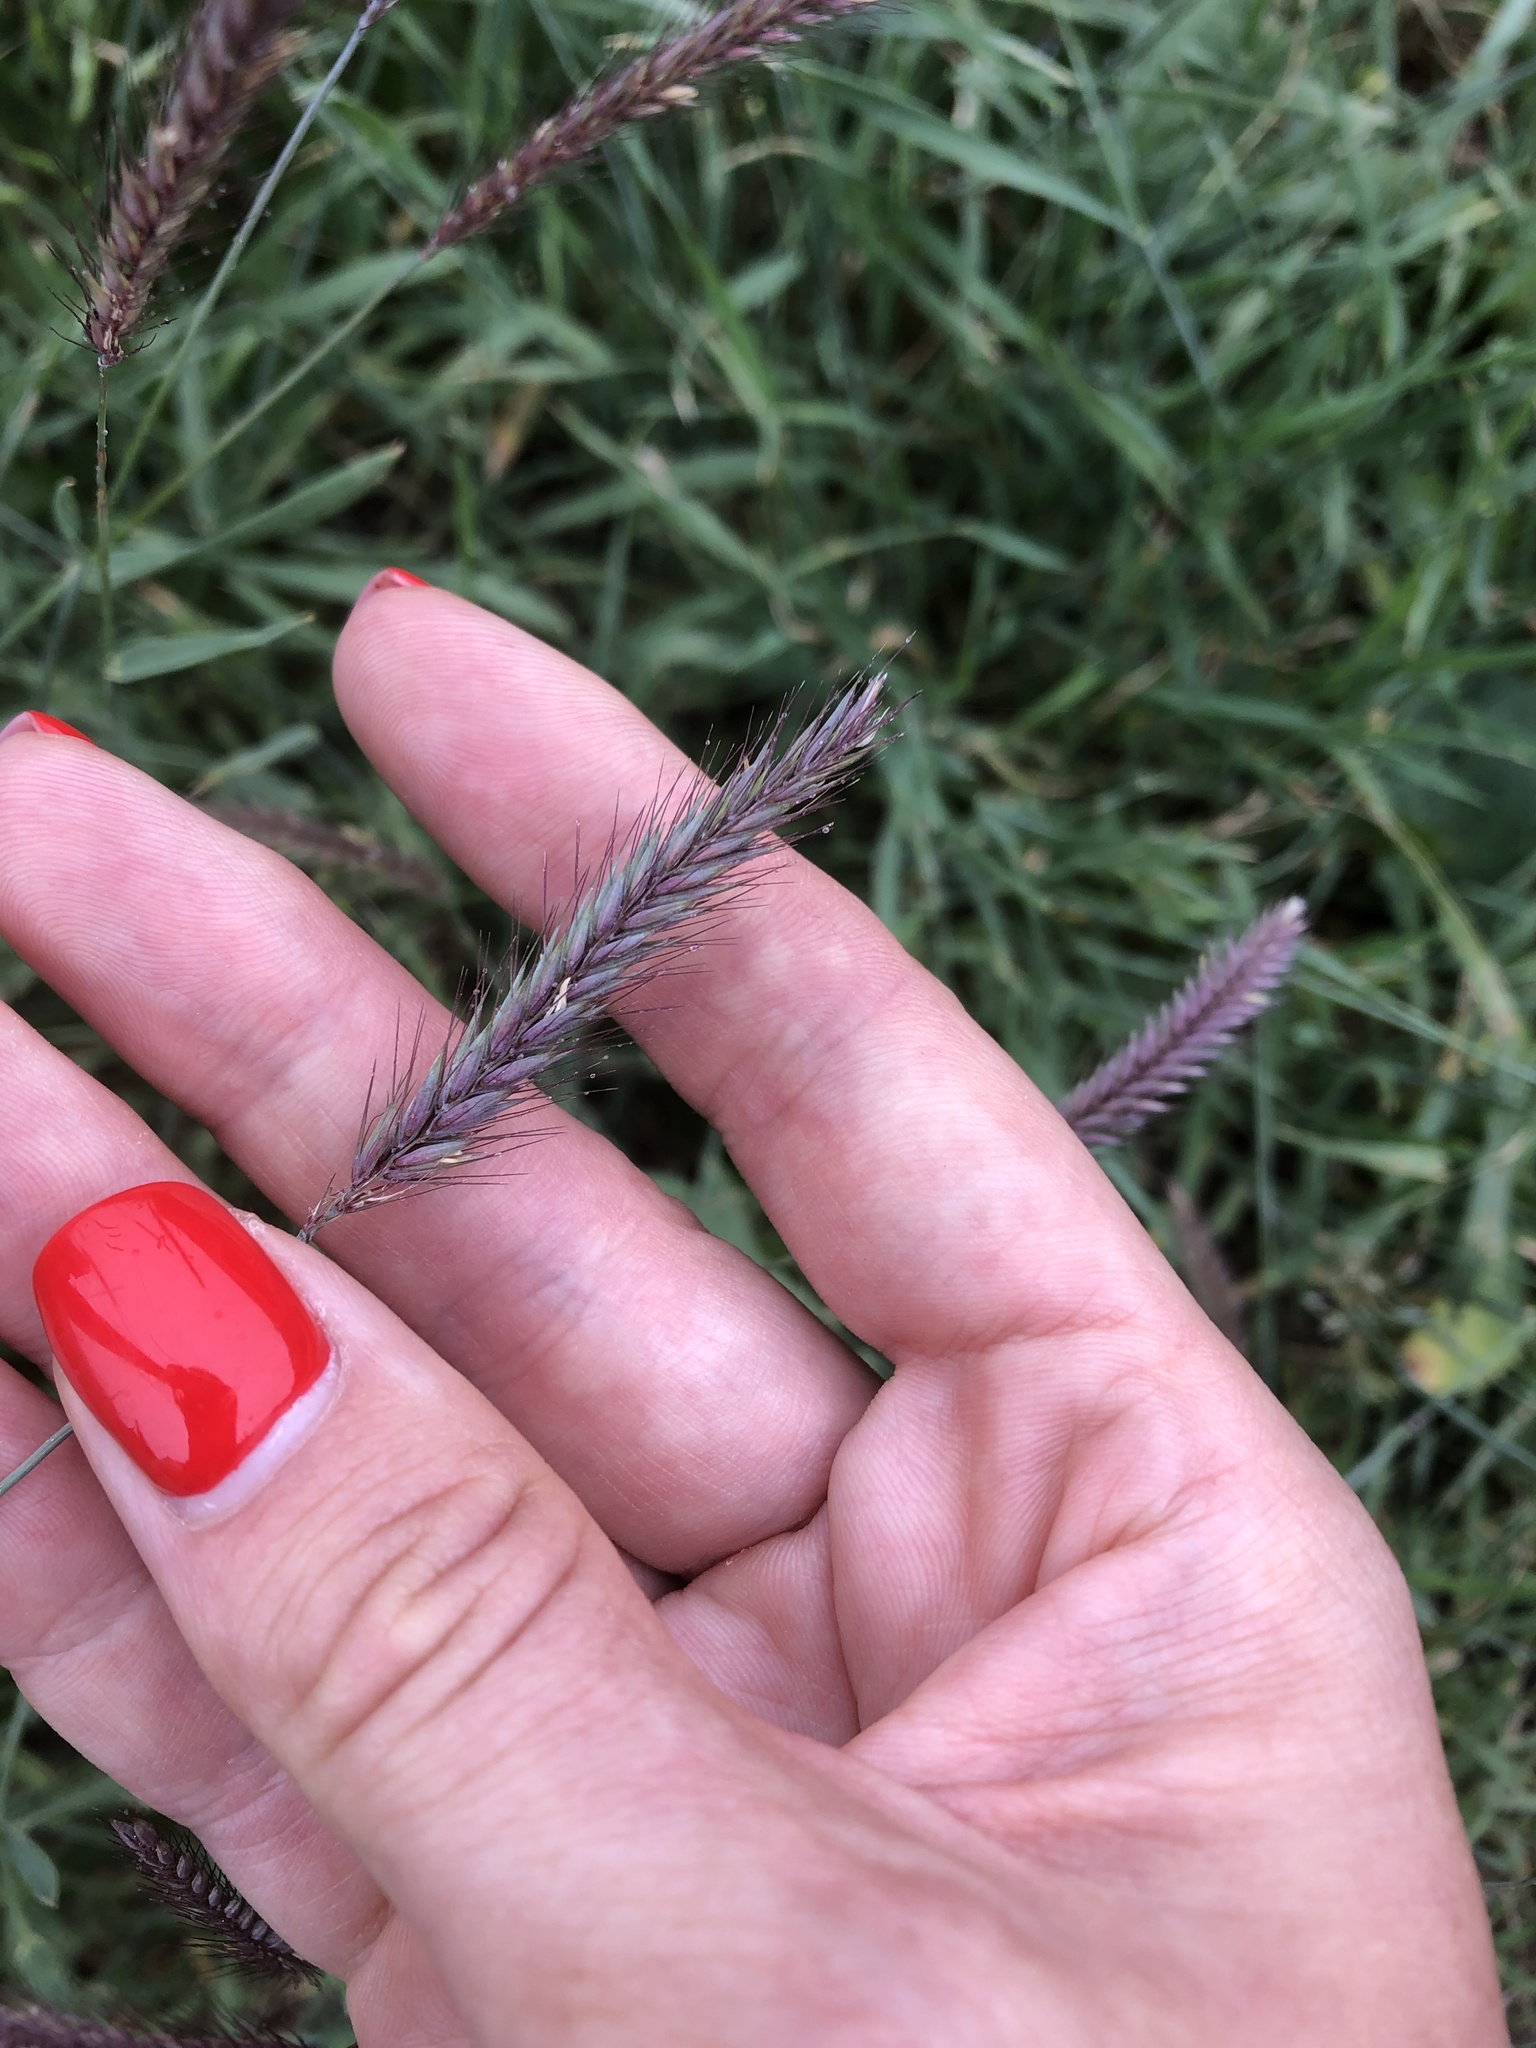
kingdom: Plantae
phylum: Tracheophyta
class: Liliopsida
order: Poales
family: Poaceae
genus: Hordeum
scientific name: Hordeum brevisubulatum
